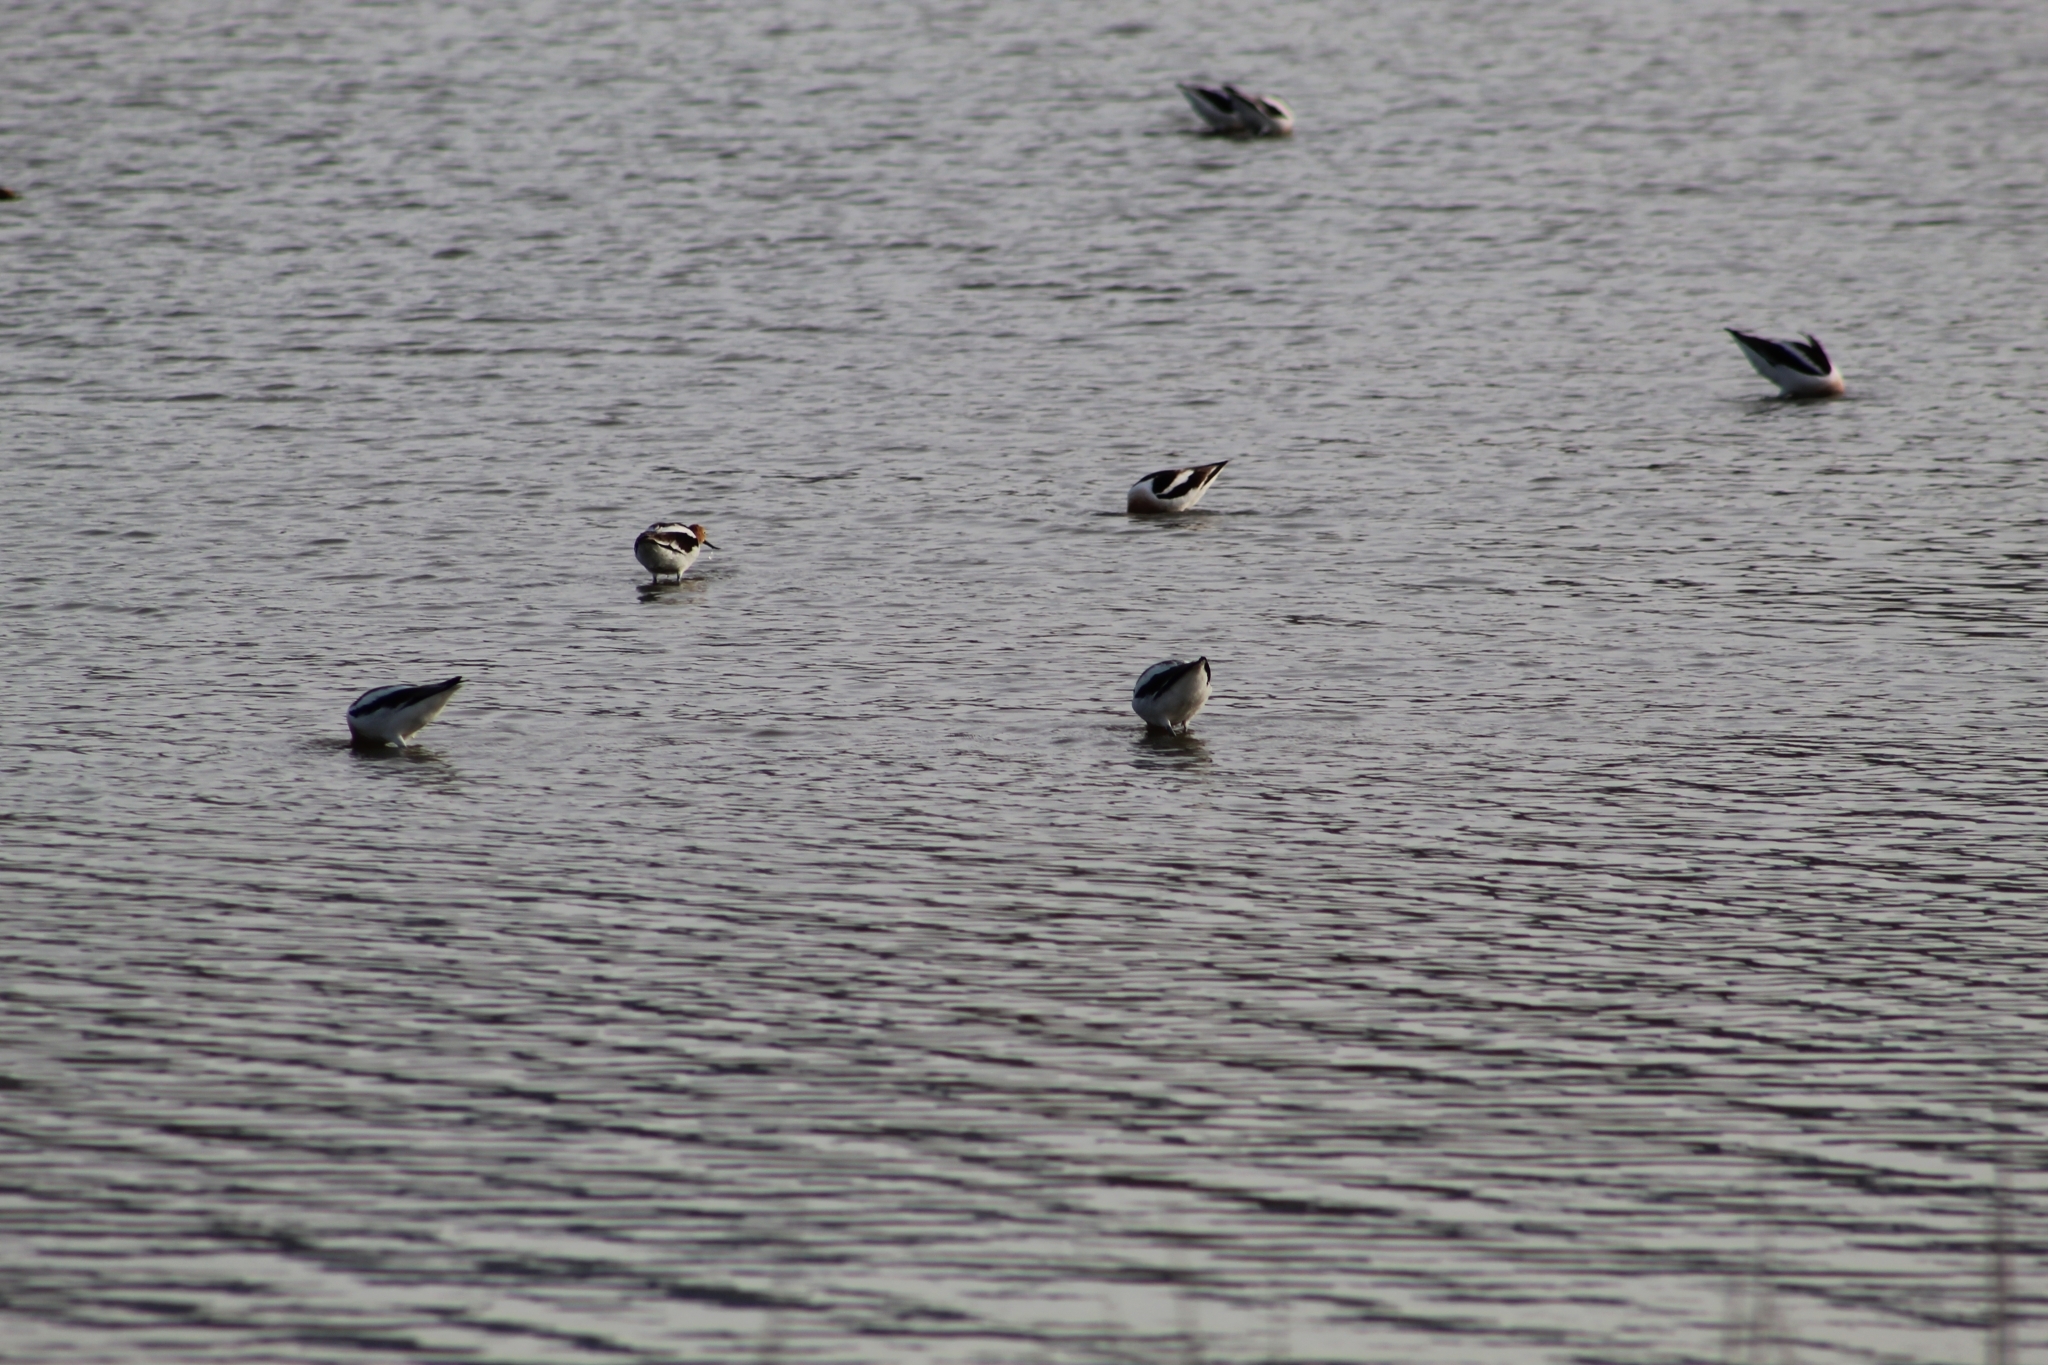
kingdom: Animalia
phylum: Chordata
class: Aves
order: Charadriiformes
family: Recurvirostridae
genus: Recurvirostra
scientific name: Recurvirostra americana
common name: American avocet
